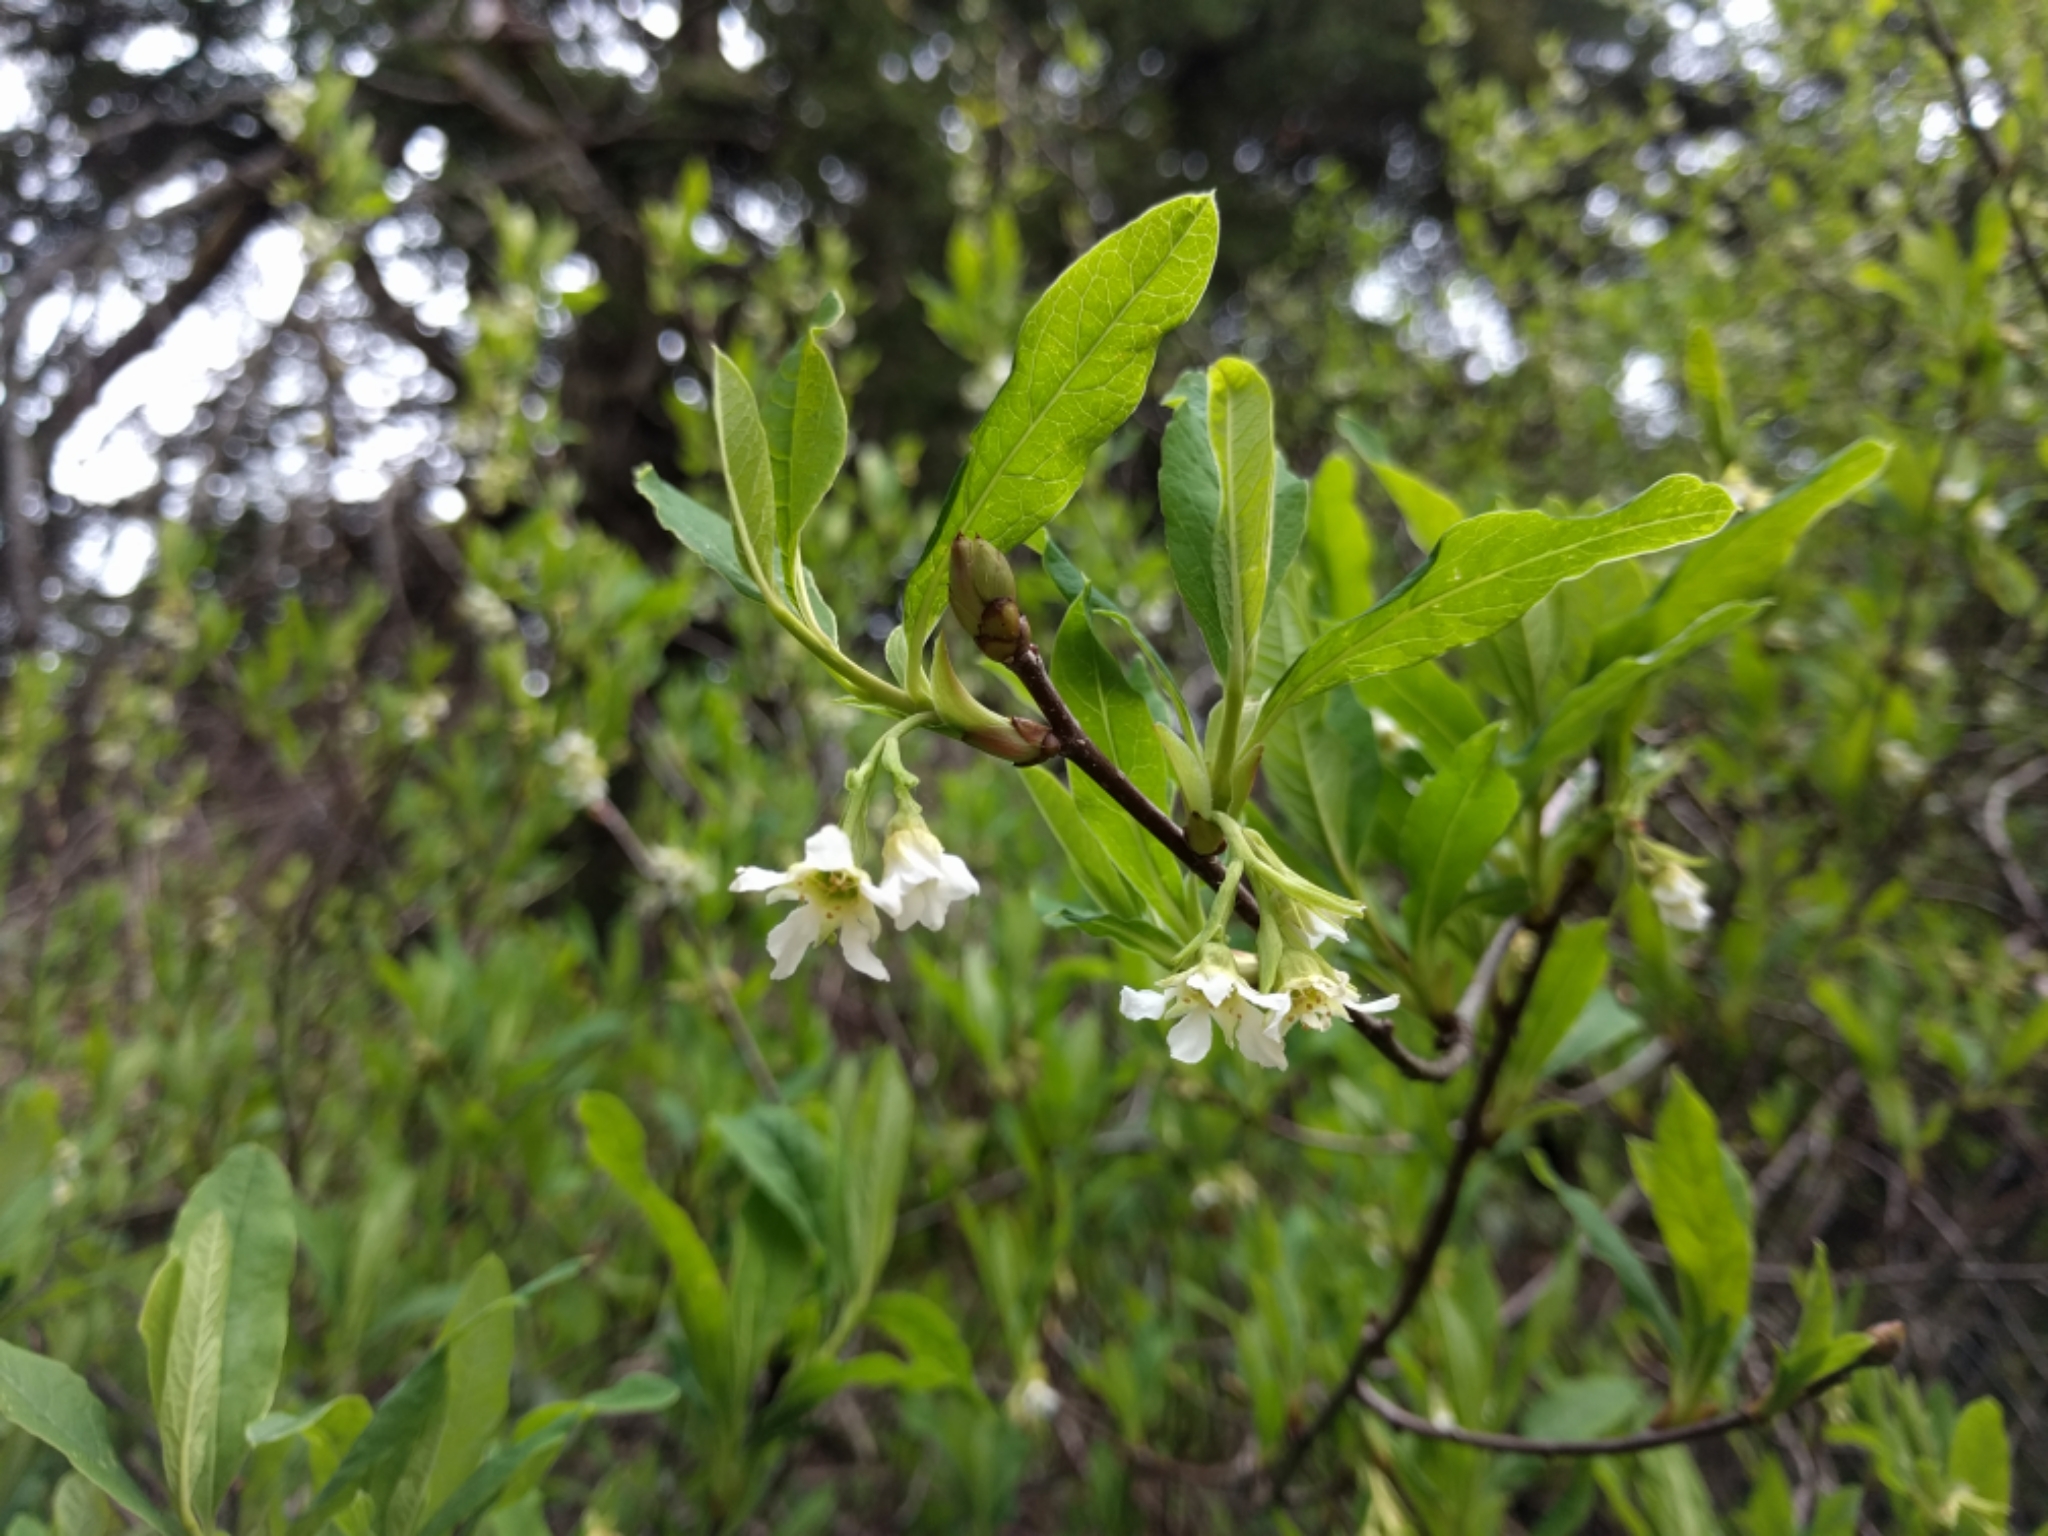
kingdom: Plantae
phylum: Tracheophyta
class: Magnoliopsida
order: Rosales
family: Rosaceae
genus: Oemleria
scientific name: Oemleria cerasiformis
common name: Osoberry
